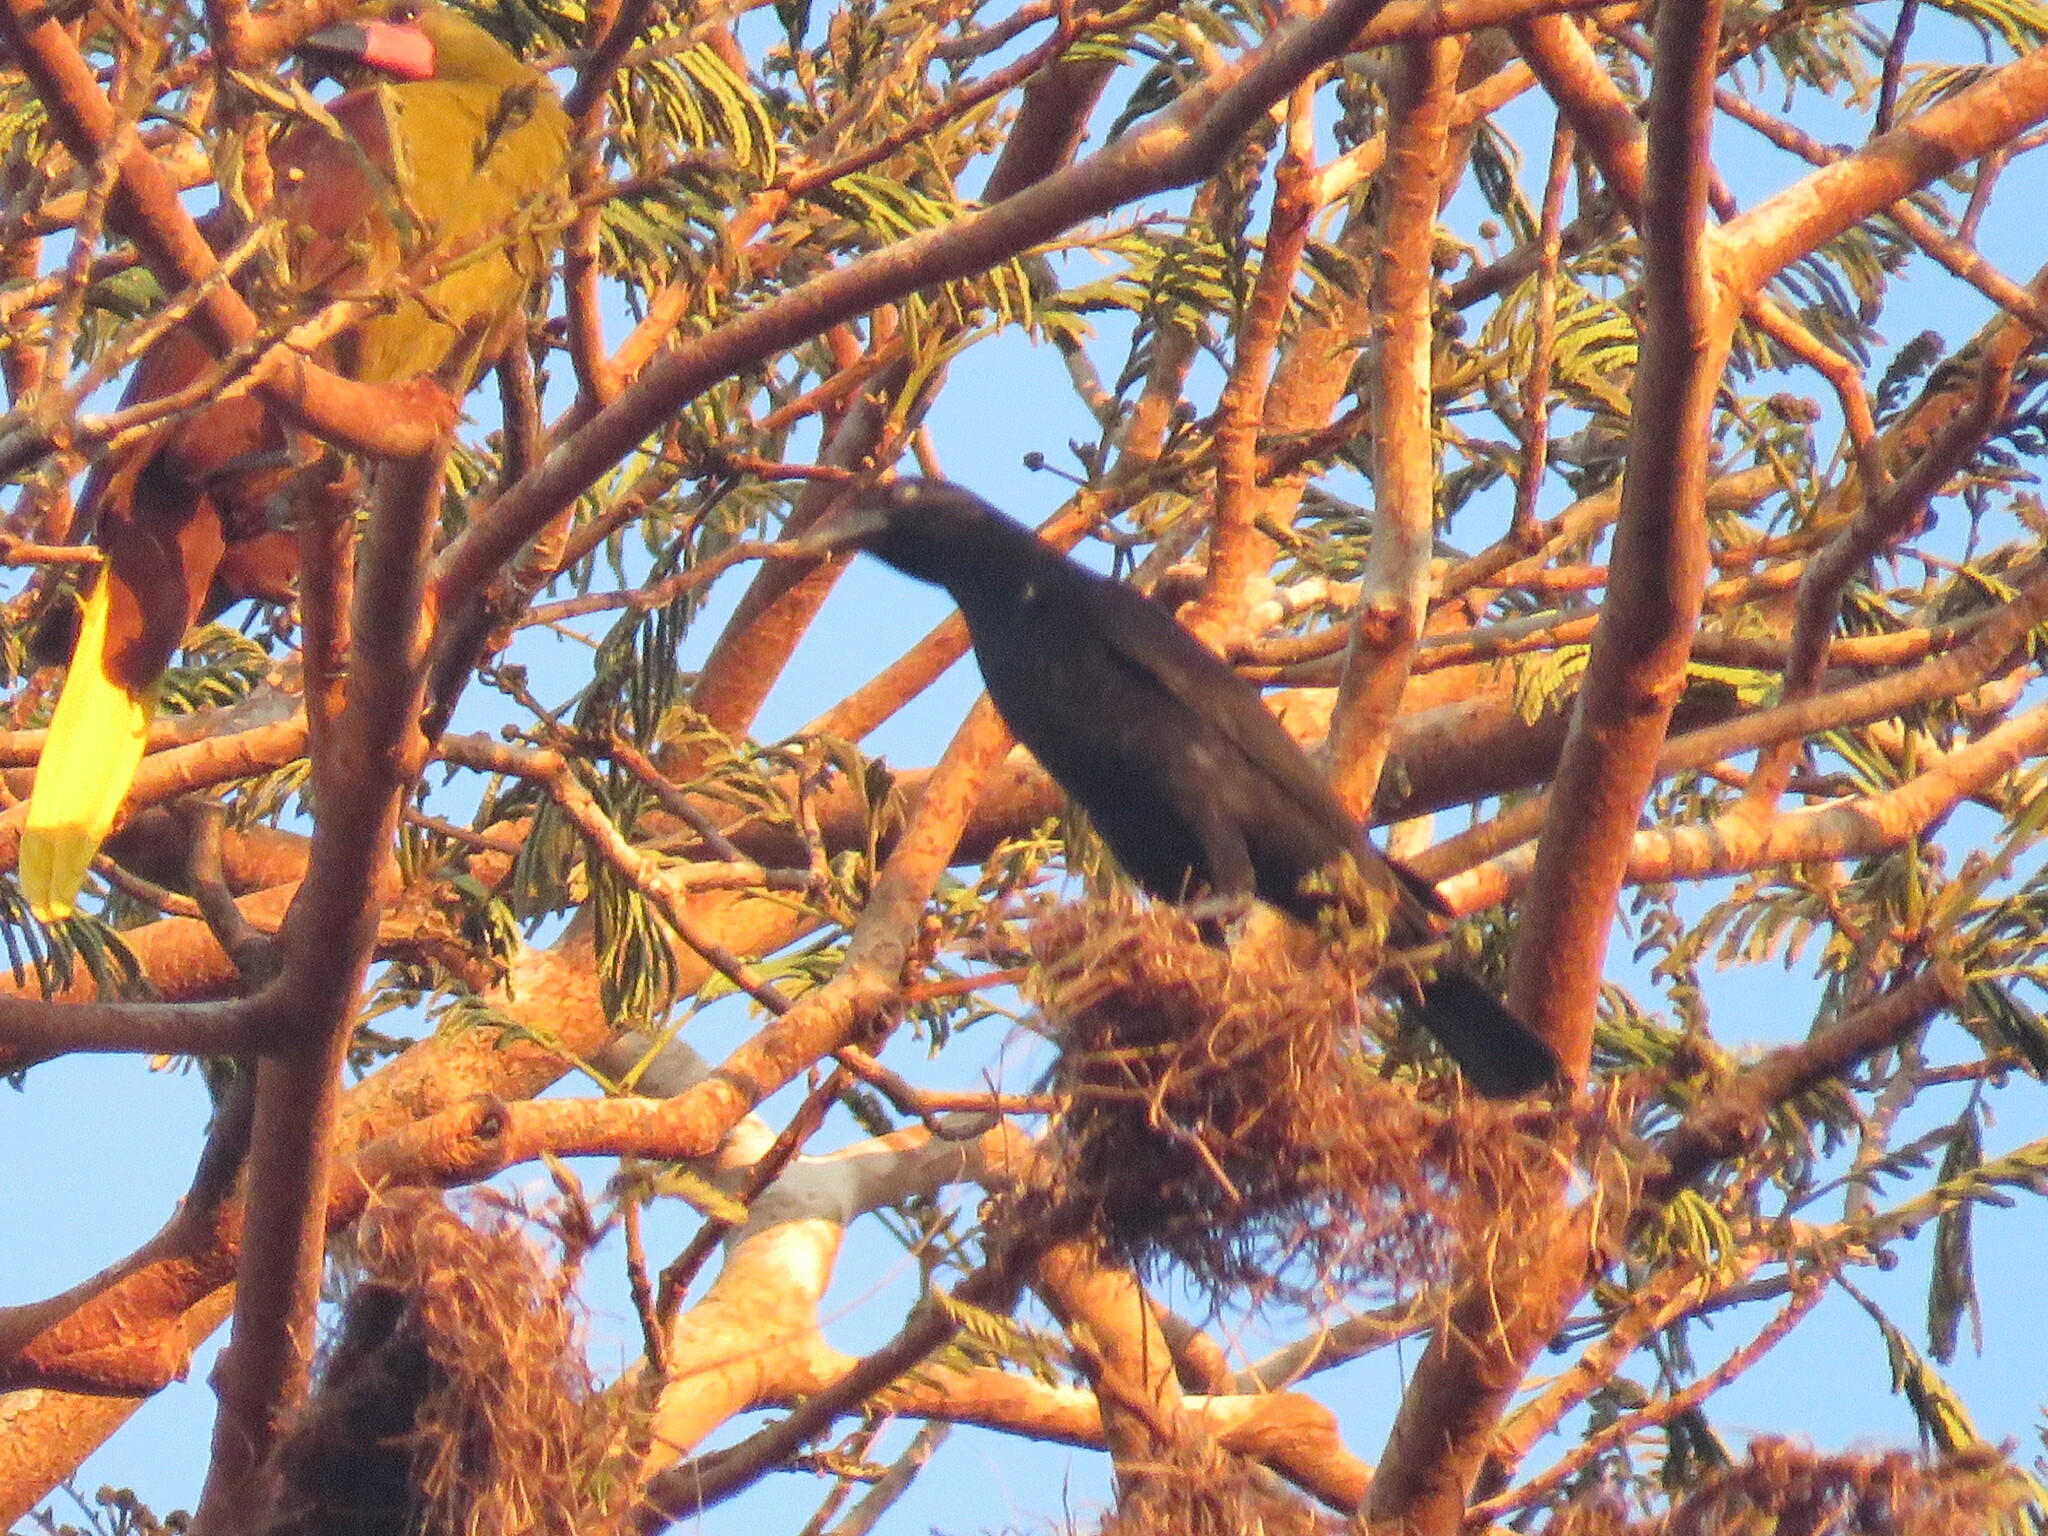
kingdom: Animalia
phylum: Chordata
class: Aves
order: Passeriformes
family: Icteridae
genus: Molothrus
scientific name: Molothrus oryzivorus
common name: Giant cowbird
